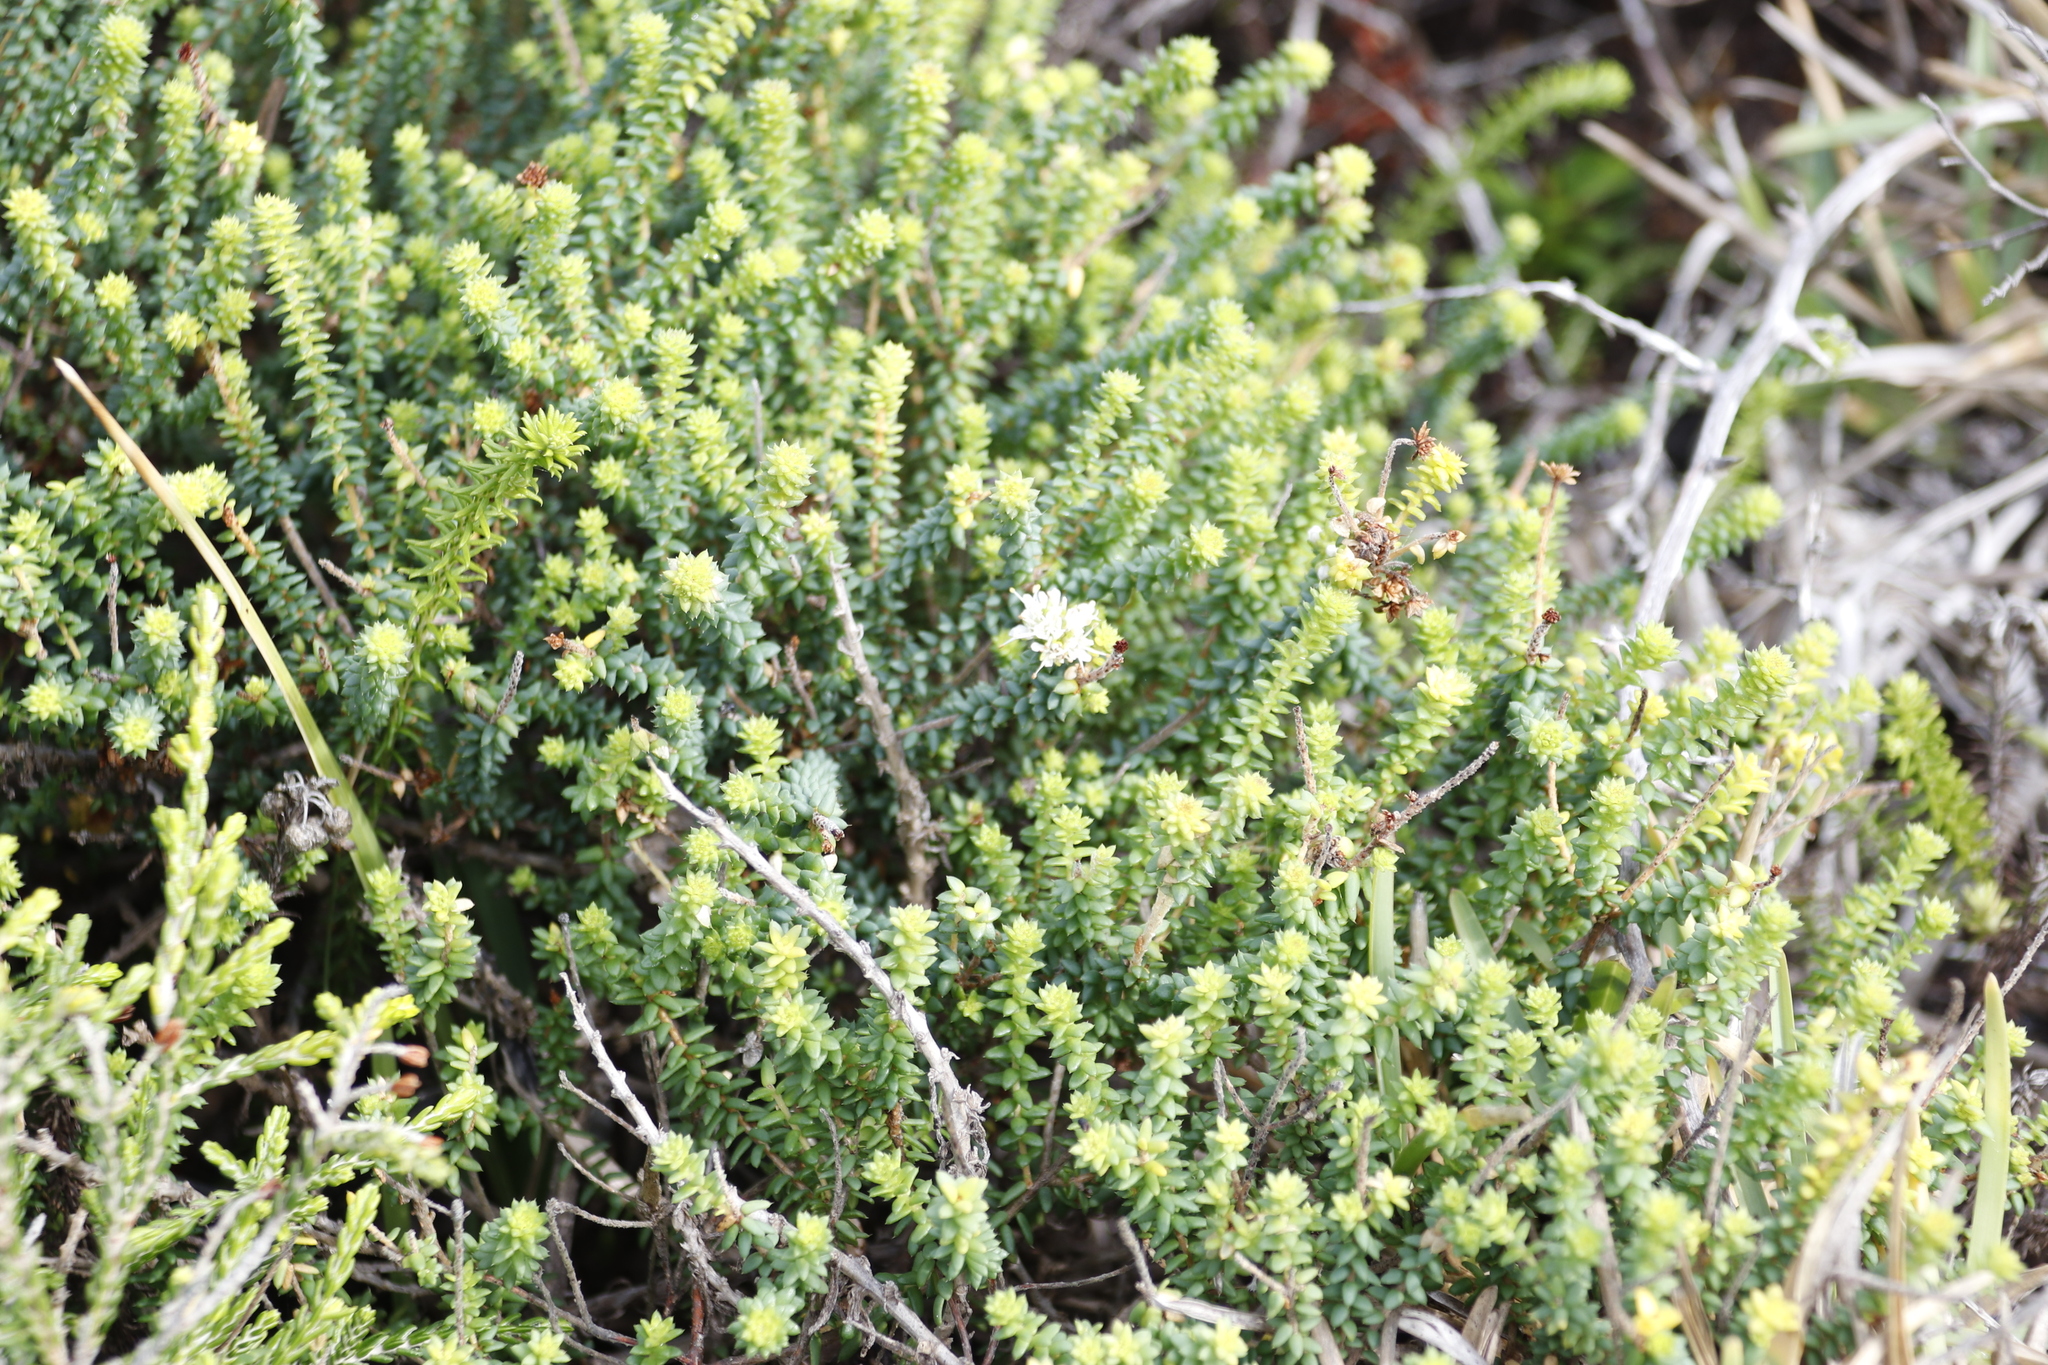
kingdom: Plantae
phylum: Tracheophyta
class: Magnoliopsida
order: Sapindales
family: Rutaceae
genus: Agathosma
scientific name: Agathosma apiculata
